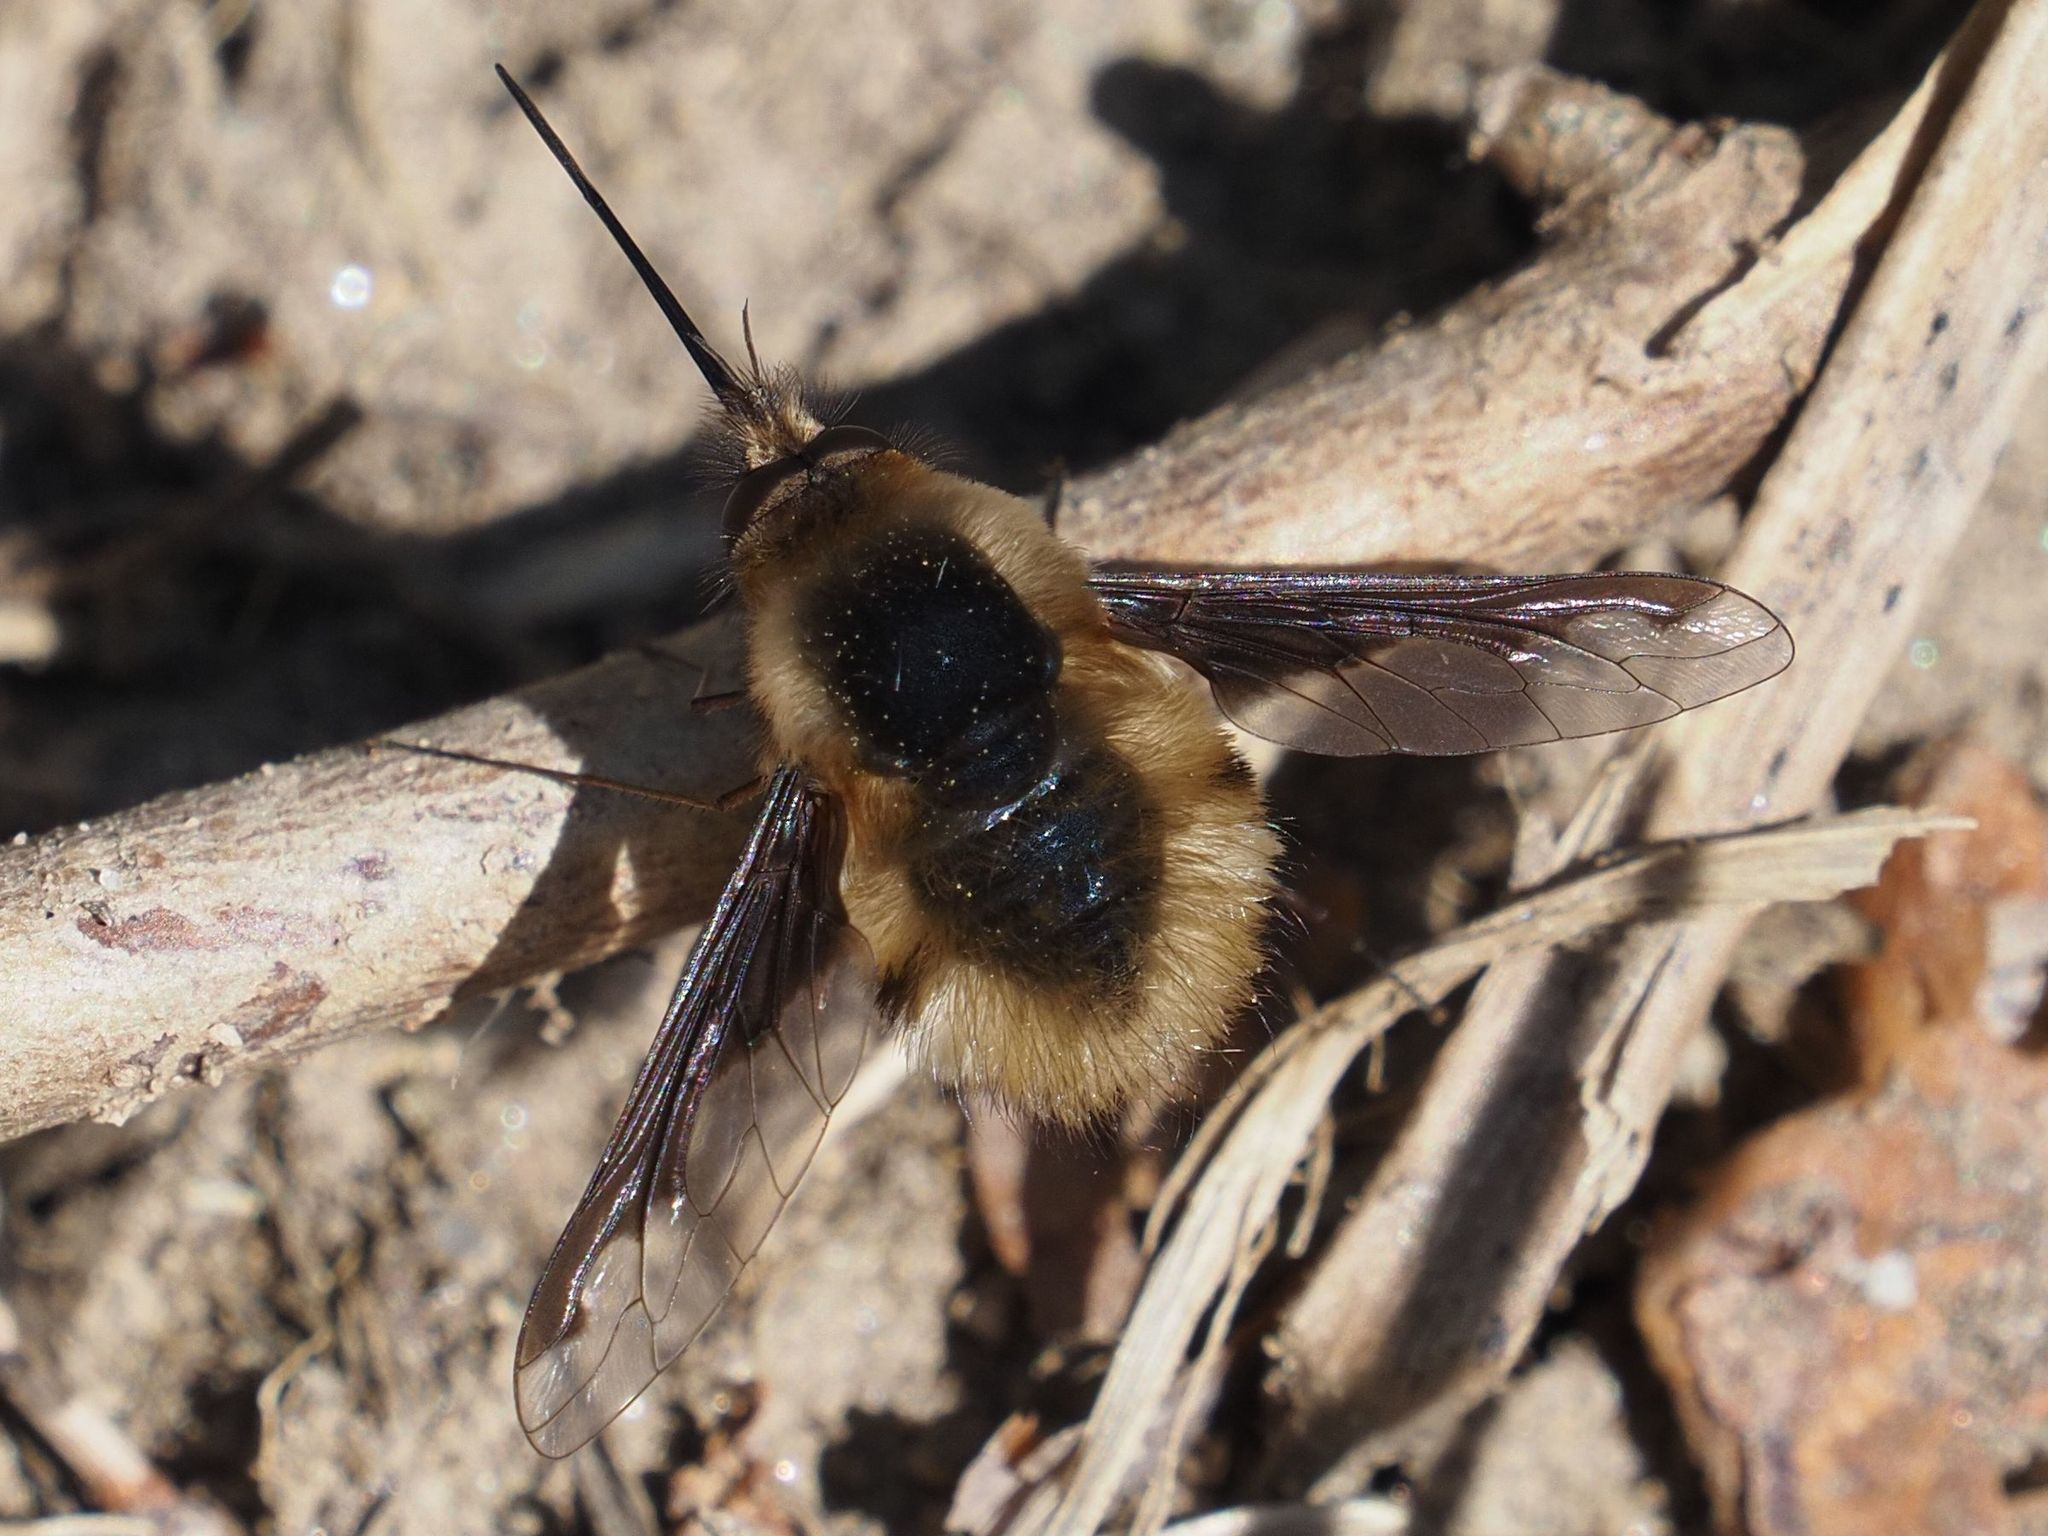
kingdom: Animalia
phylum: Arthropoda
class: Insecta
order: Diptera
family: Bombyliidae
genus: Bombylius
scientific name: Bombylius major
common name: Bee fly
